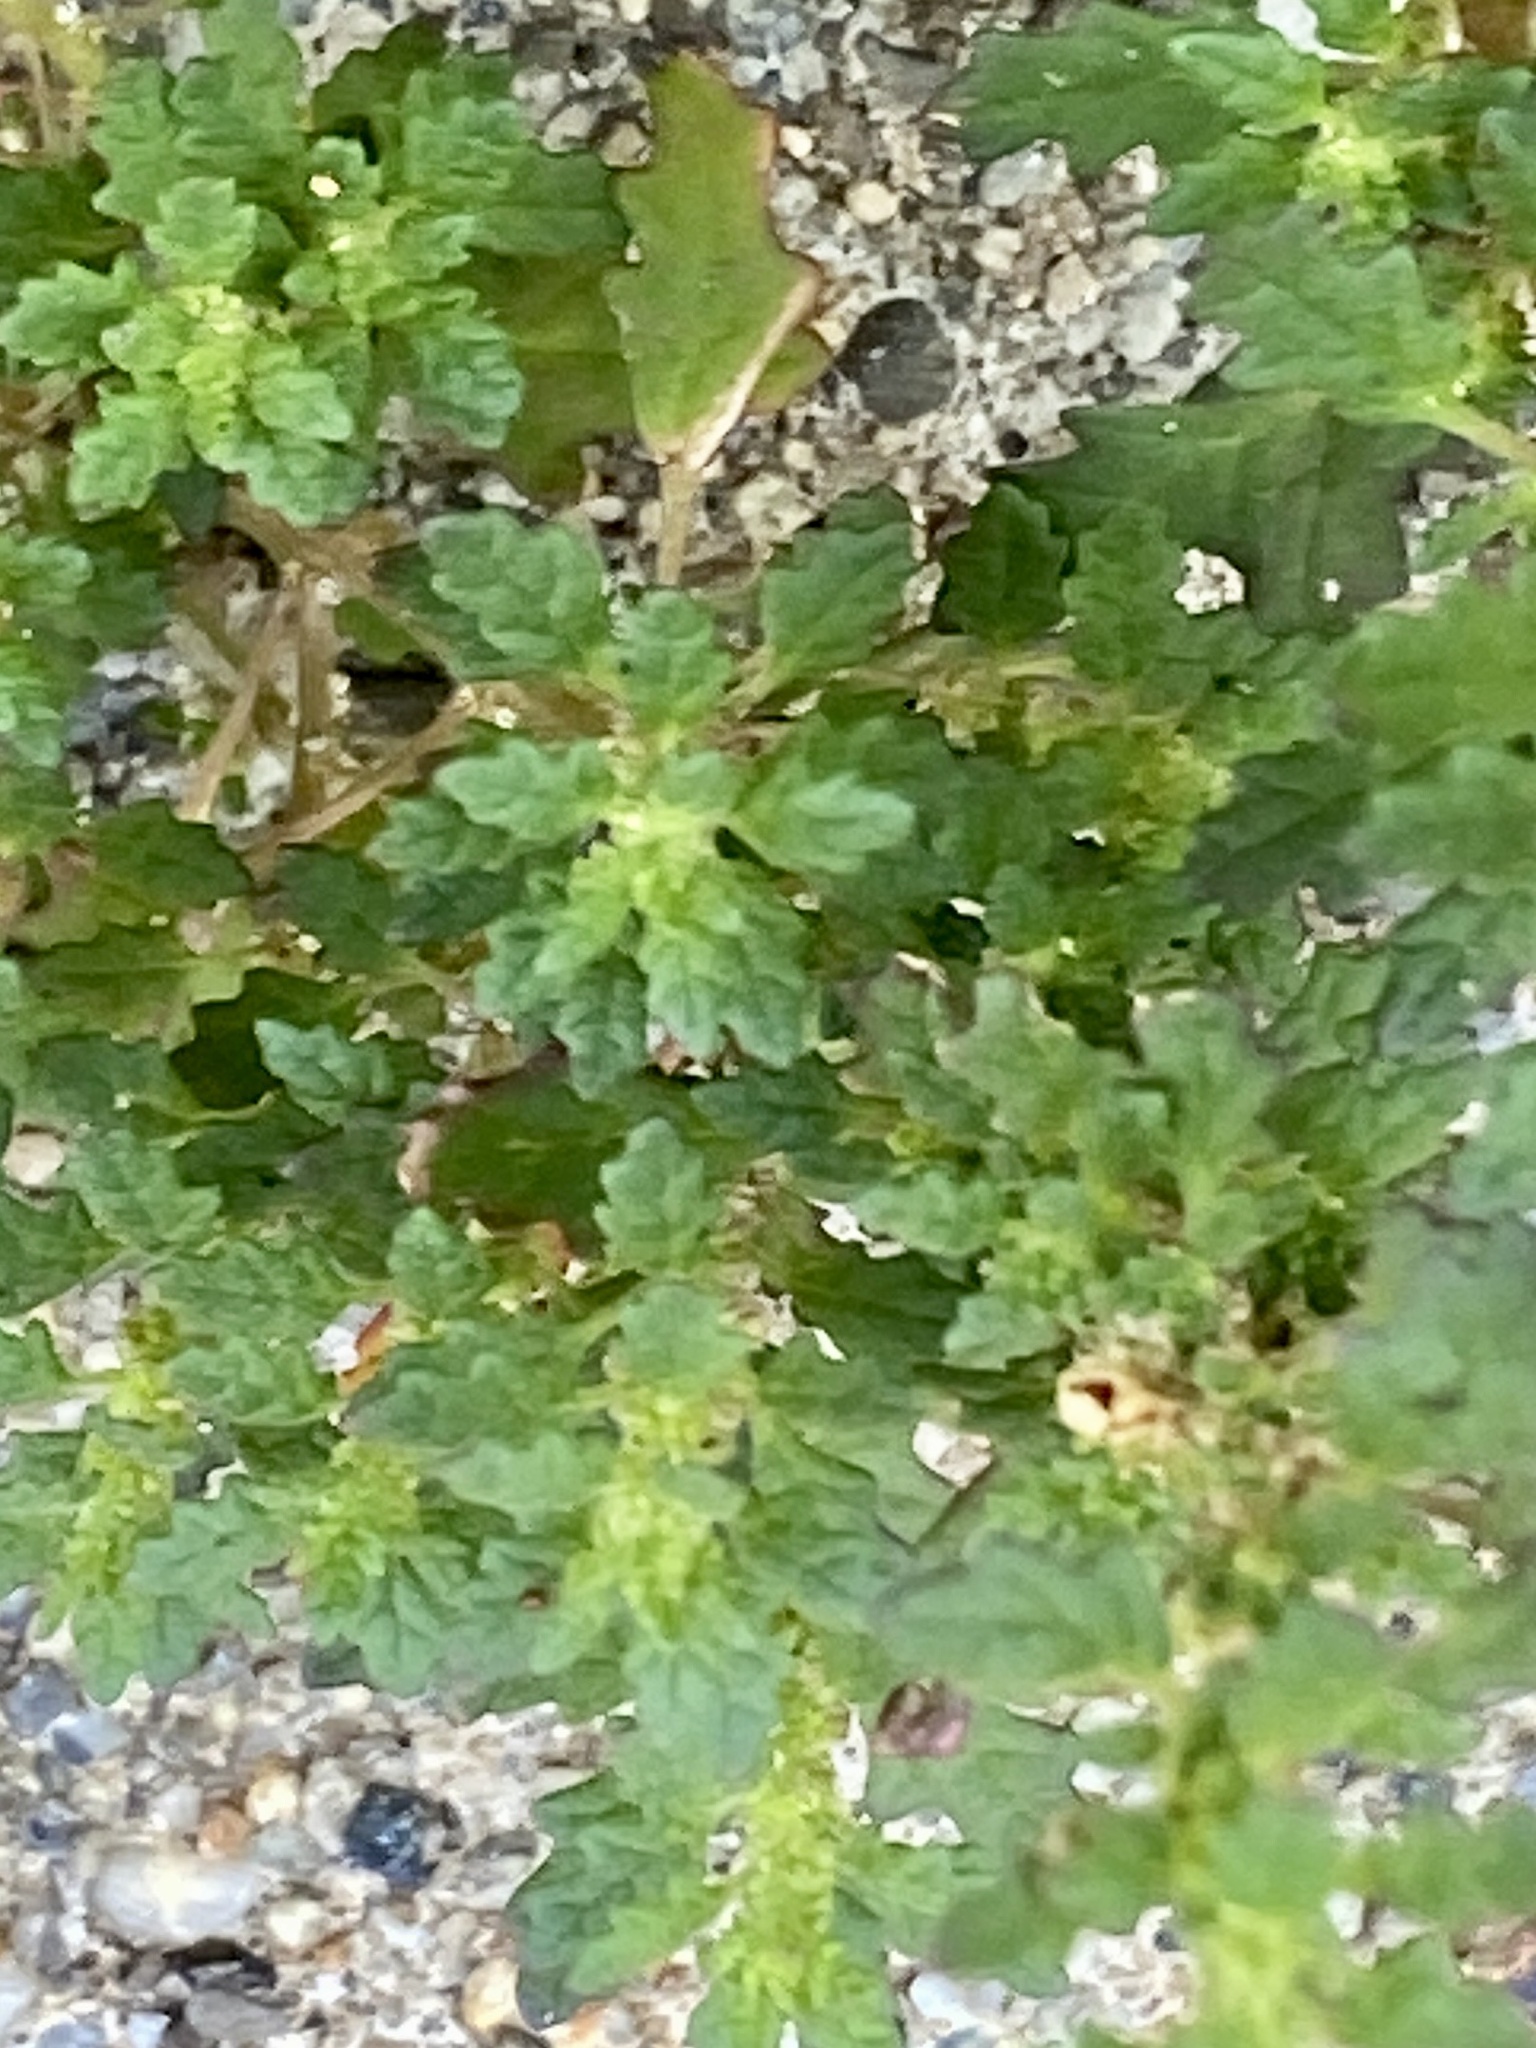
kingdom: Plantae
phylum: Tracheophyta
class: Magnoliopsida
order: Caryophyllales
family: Amaranthaceae
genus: Dysphania
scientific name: Dysphania pumilio
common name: Clammy goosefoot
